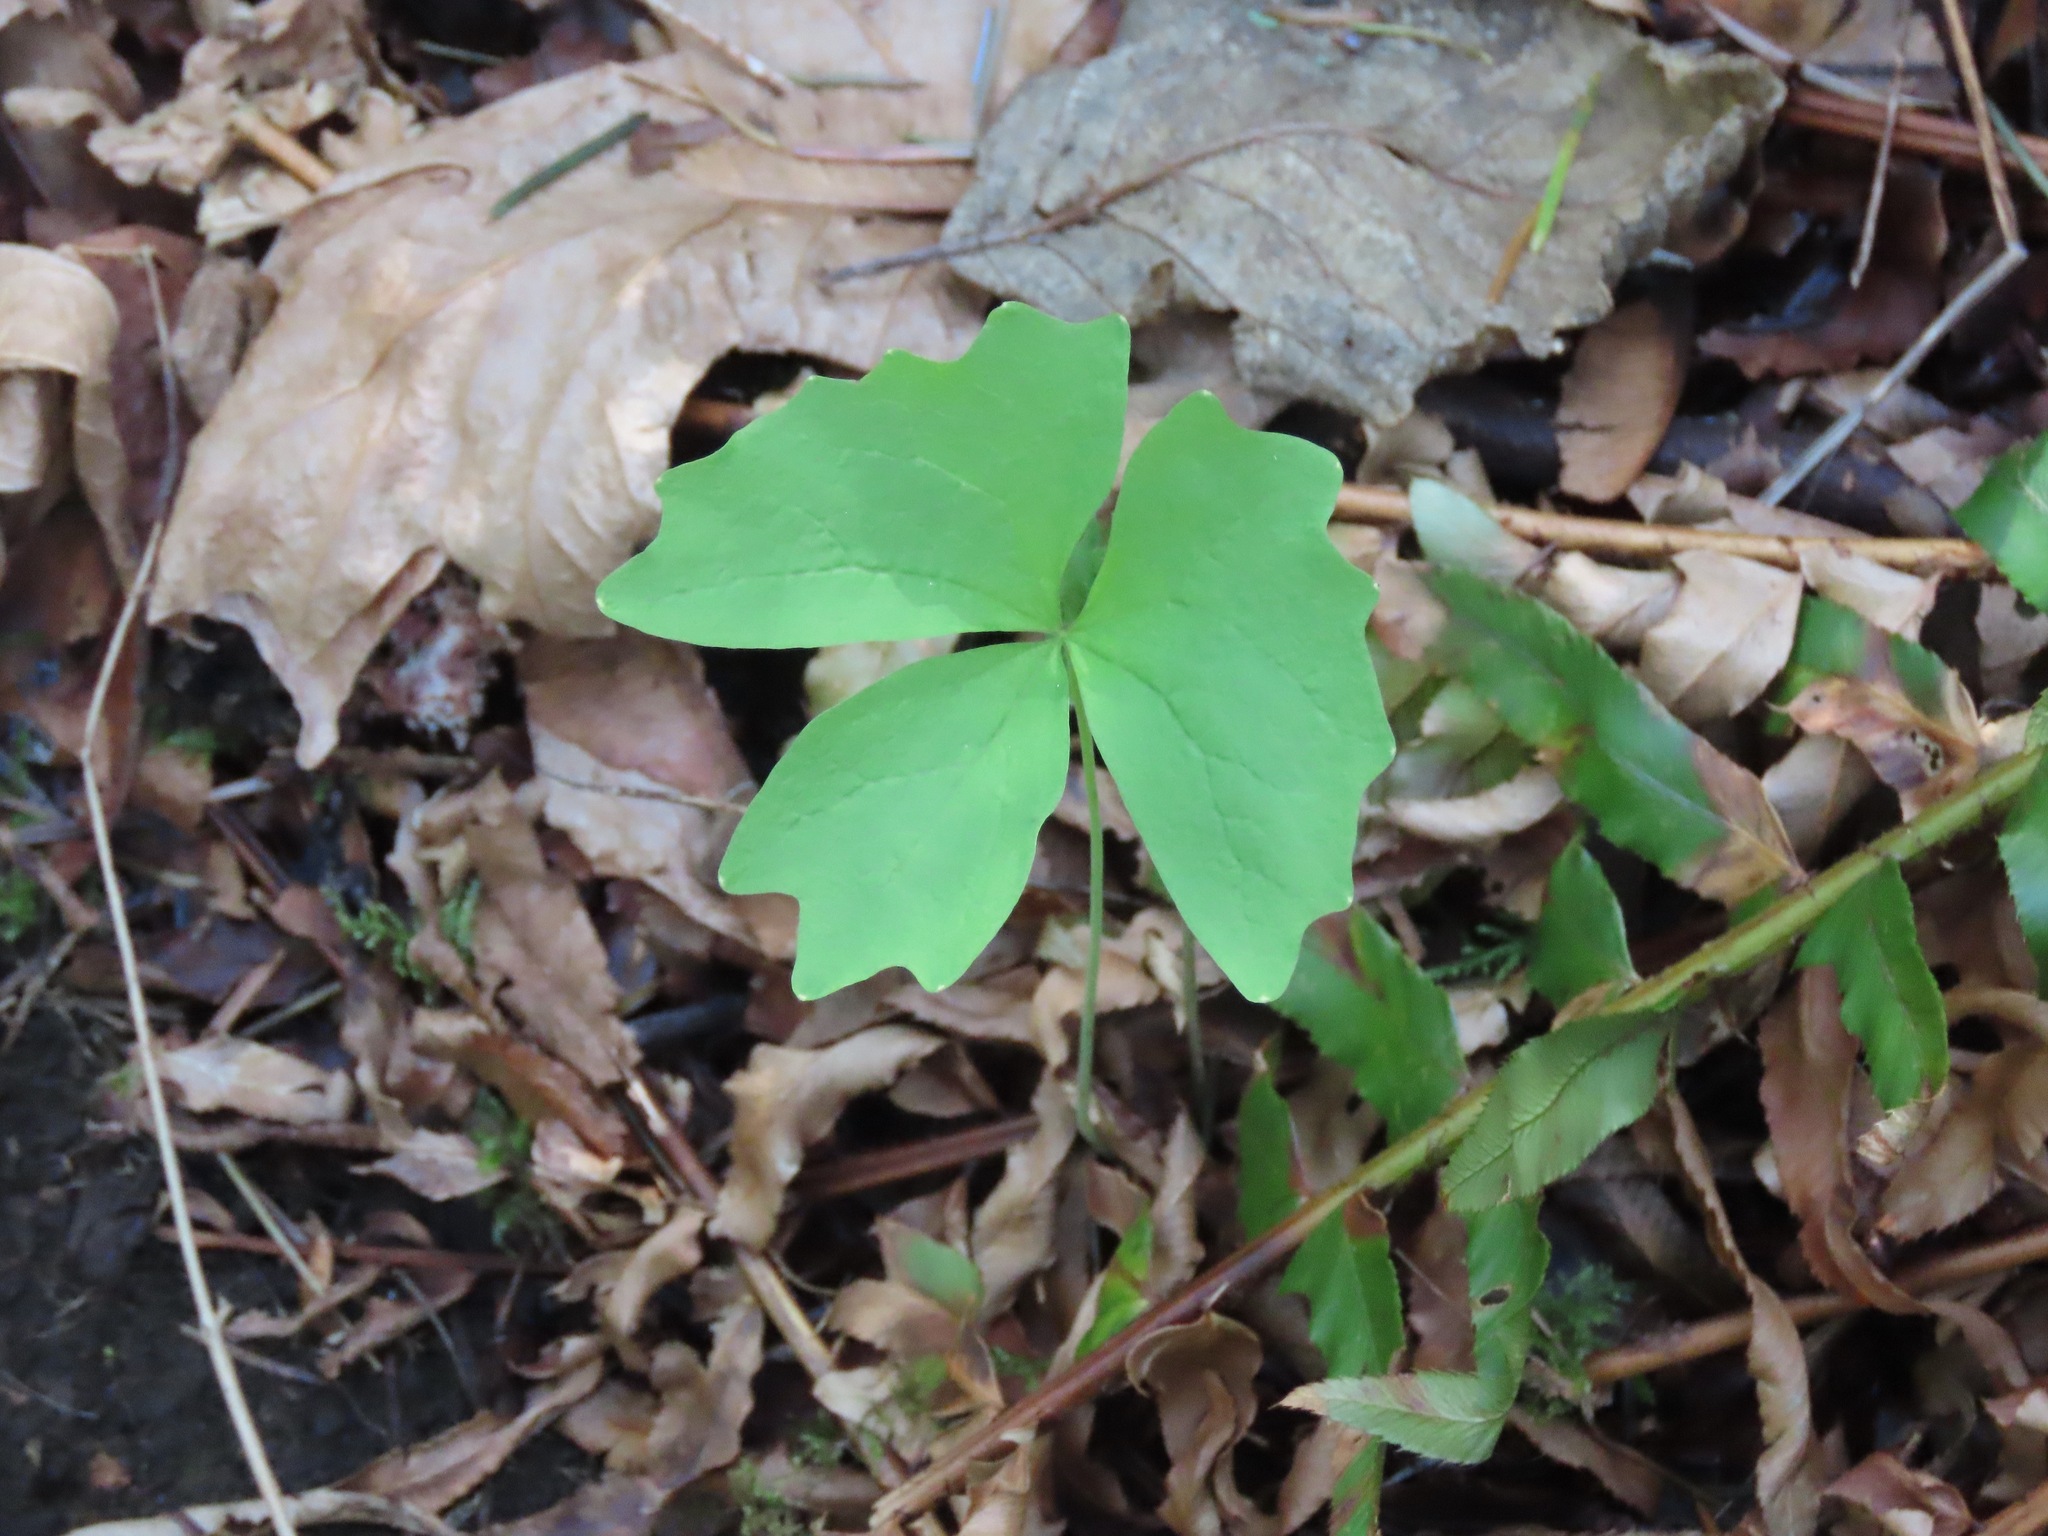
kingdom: Plantae
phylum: Tracheophyta
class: Magnoliopsida
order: Ranunculales
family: Berberidaceae
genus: Achlys
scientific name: Achlys triphylla
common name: Vanilla-leaf
